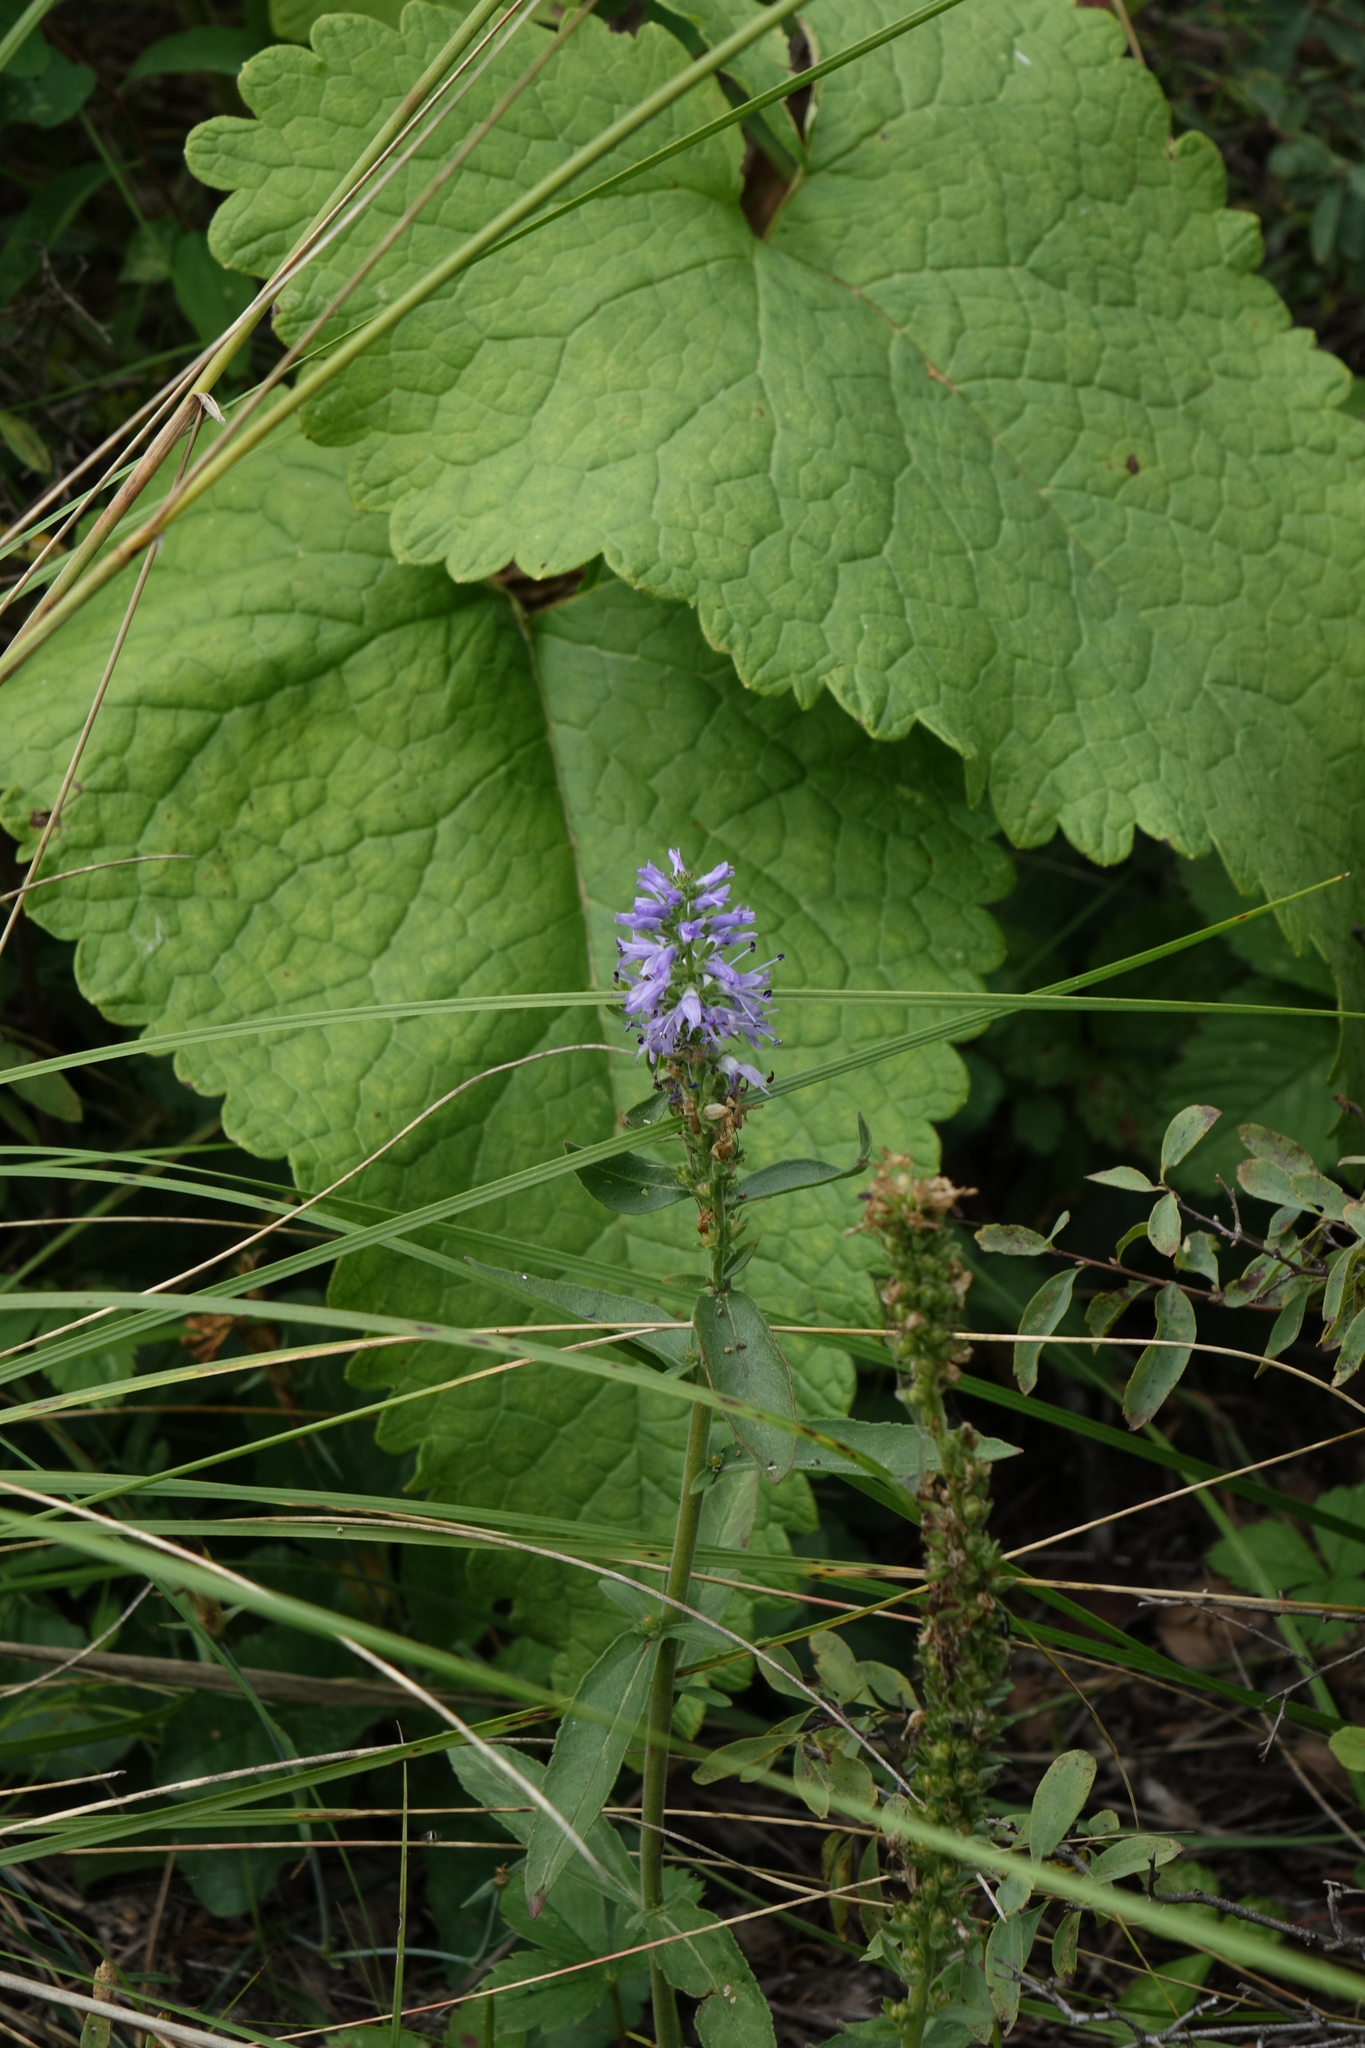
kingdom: Plantae
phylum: Tracheophyta
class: Magnoliopsida
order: Lamiales
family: Plantaginaceae
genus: Veronica
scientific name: Veronica spicata
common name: Spiked speedwell
